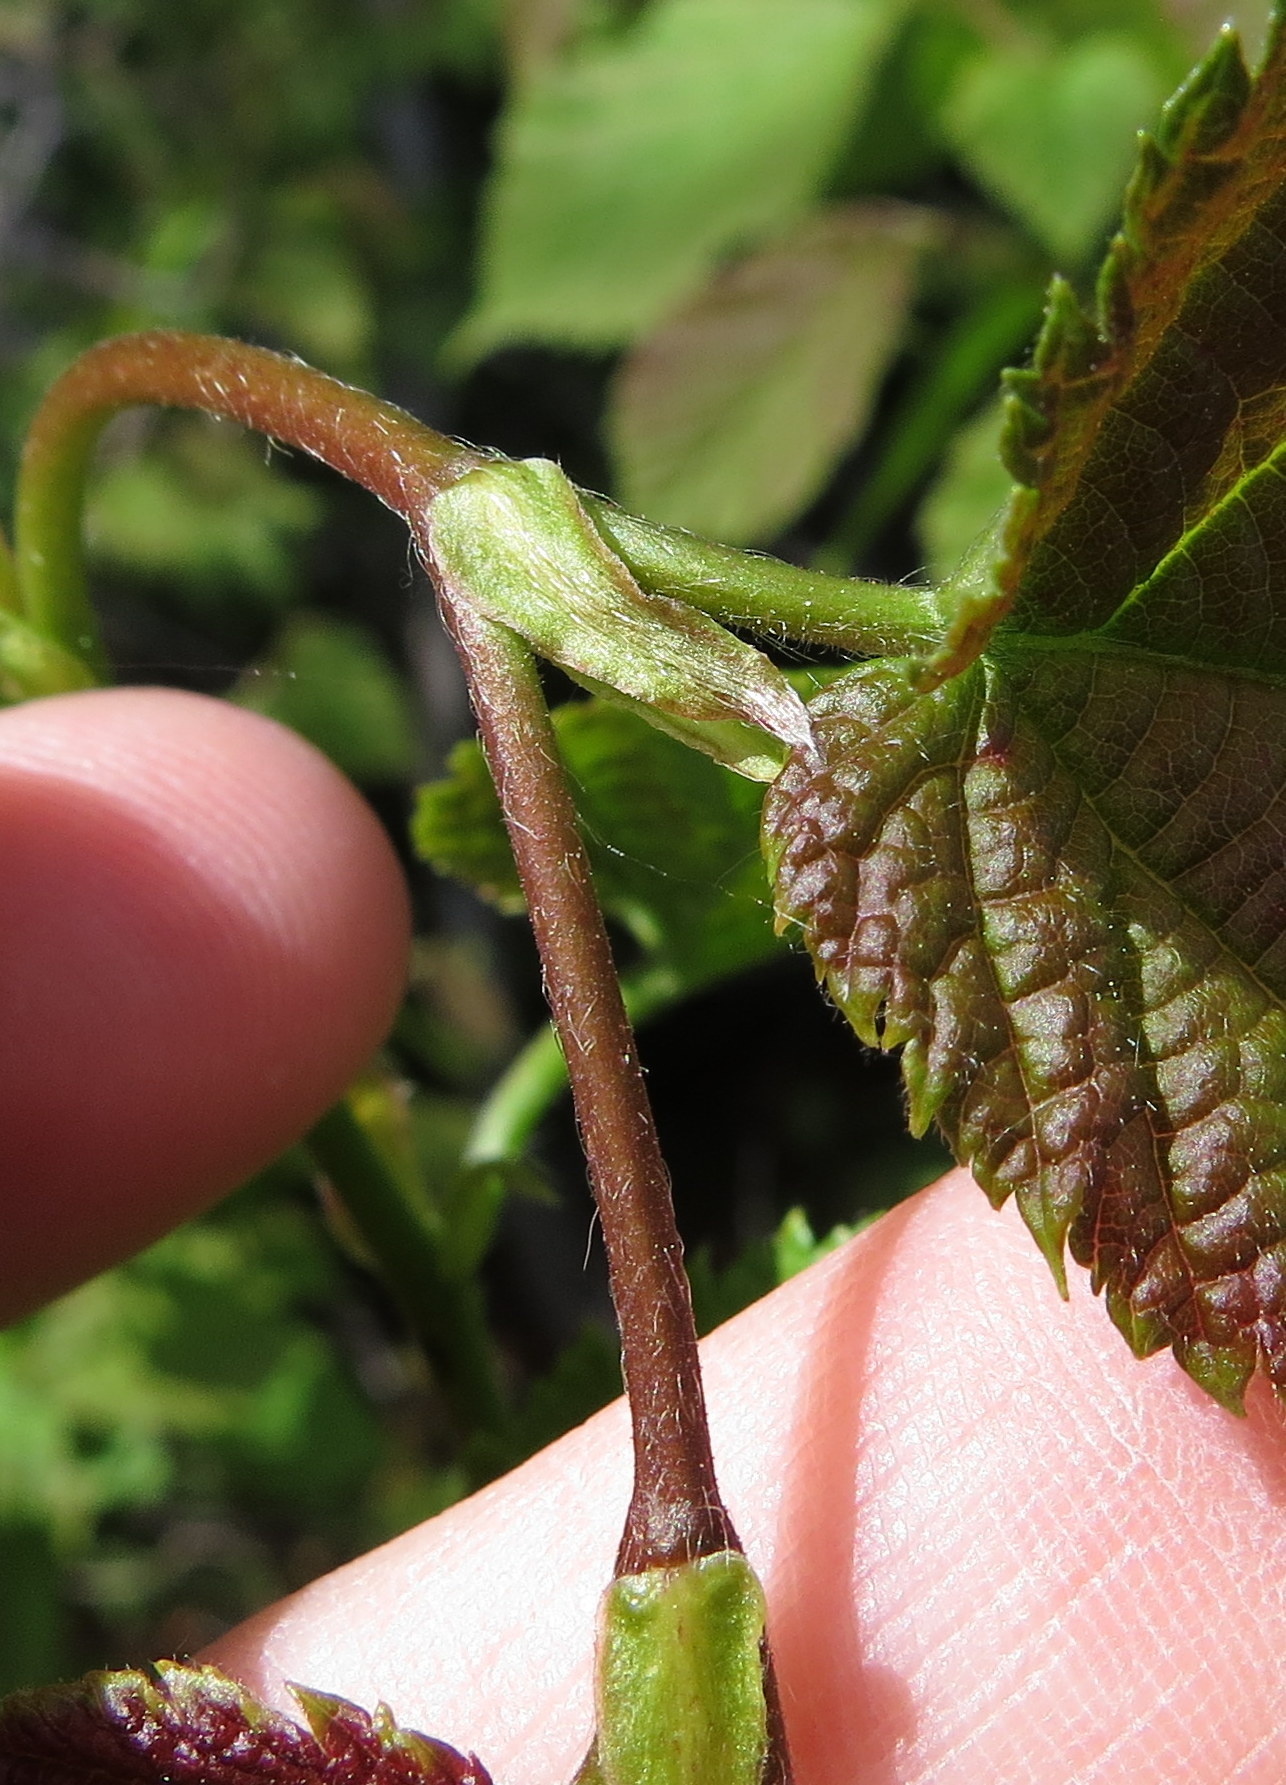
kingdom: Plantae
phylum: Tracheophyta
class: Magnoliopsida
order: Fagales
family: Betulaceae
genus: Corylus
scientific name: Corylus cornuta
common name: Beaked hazel
